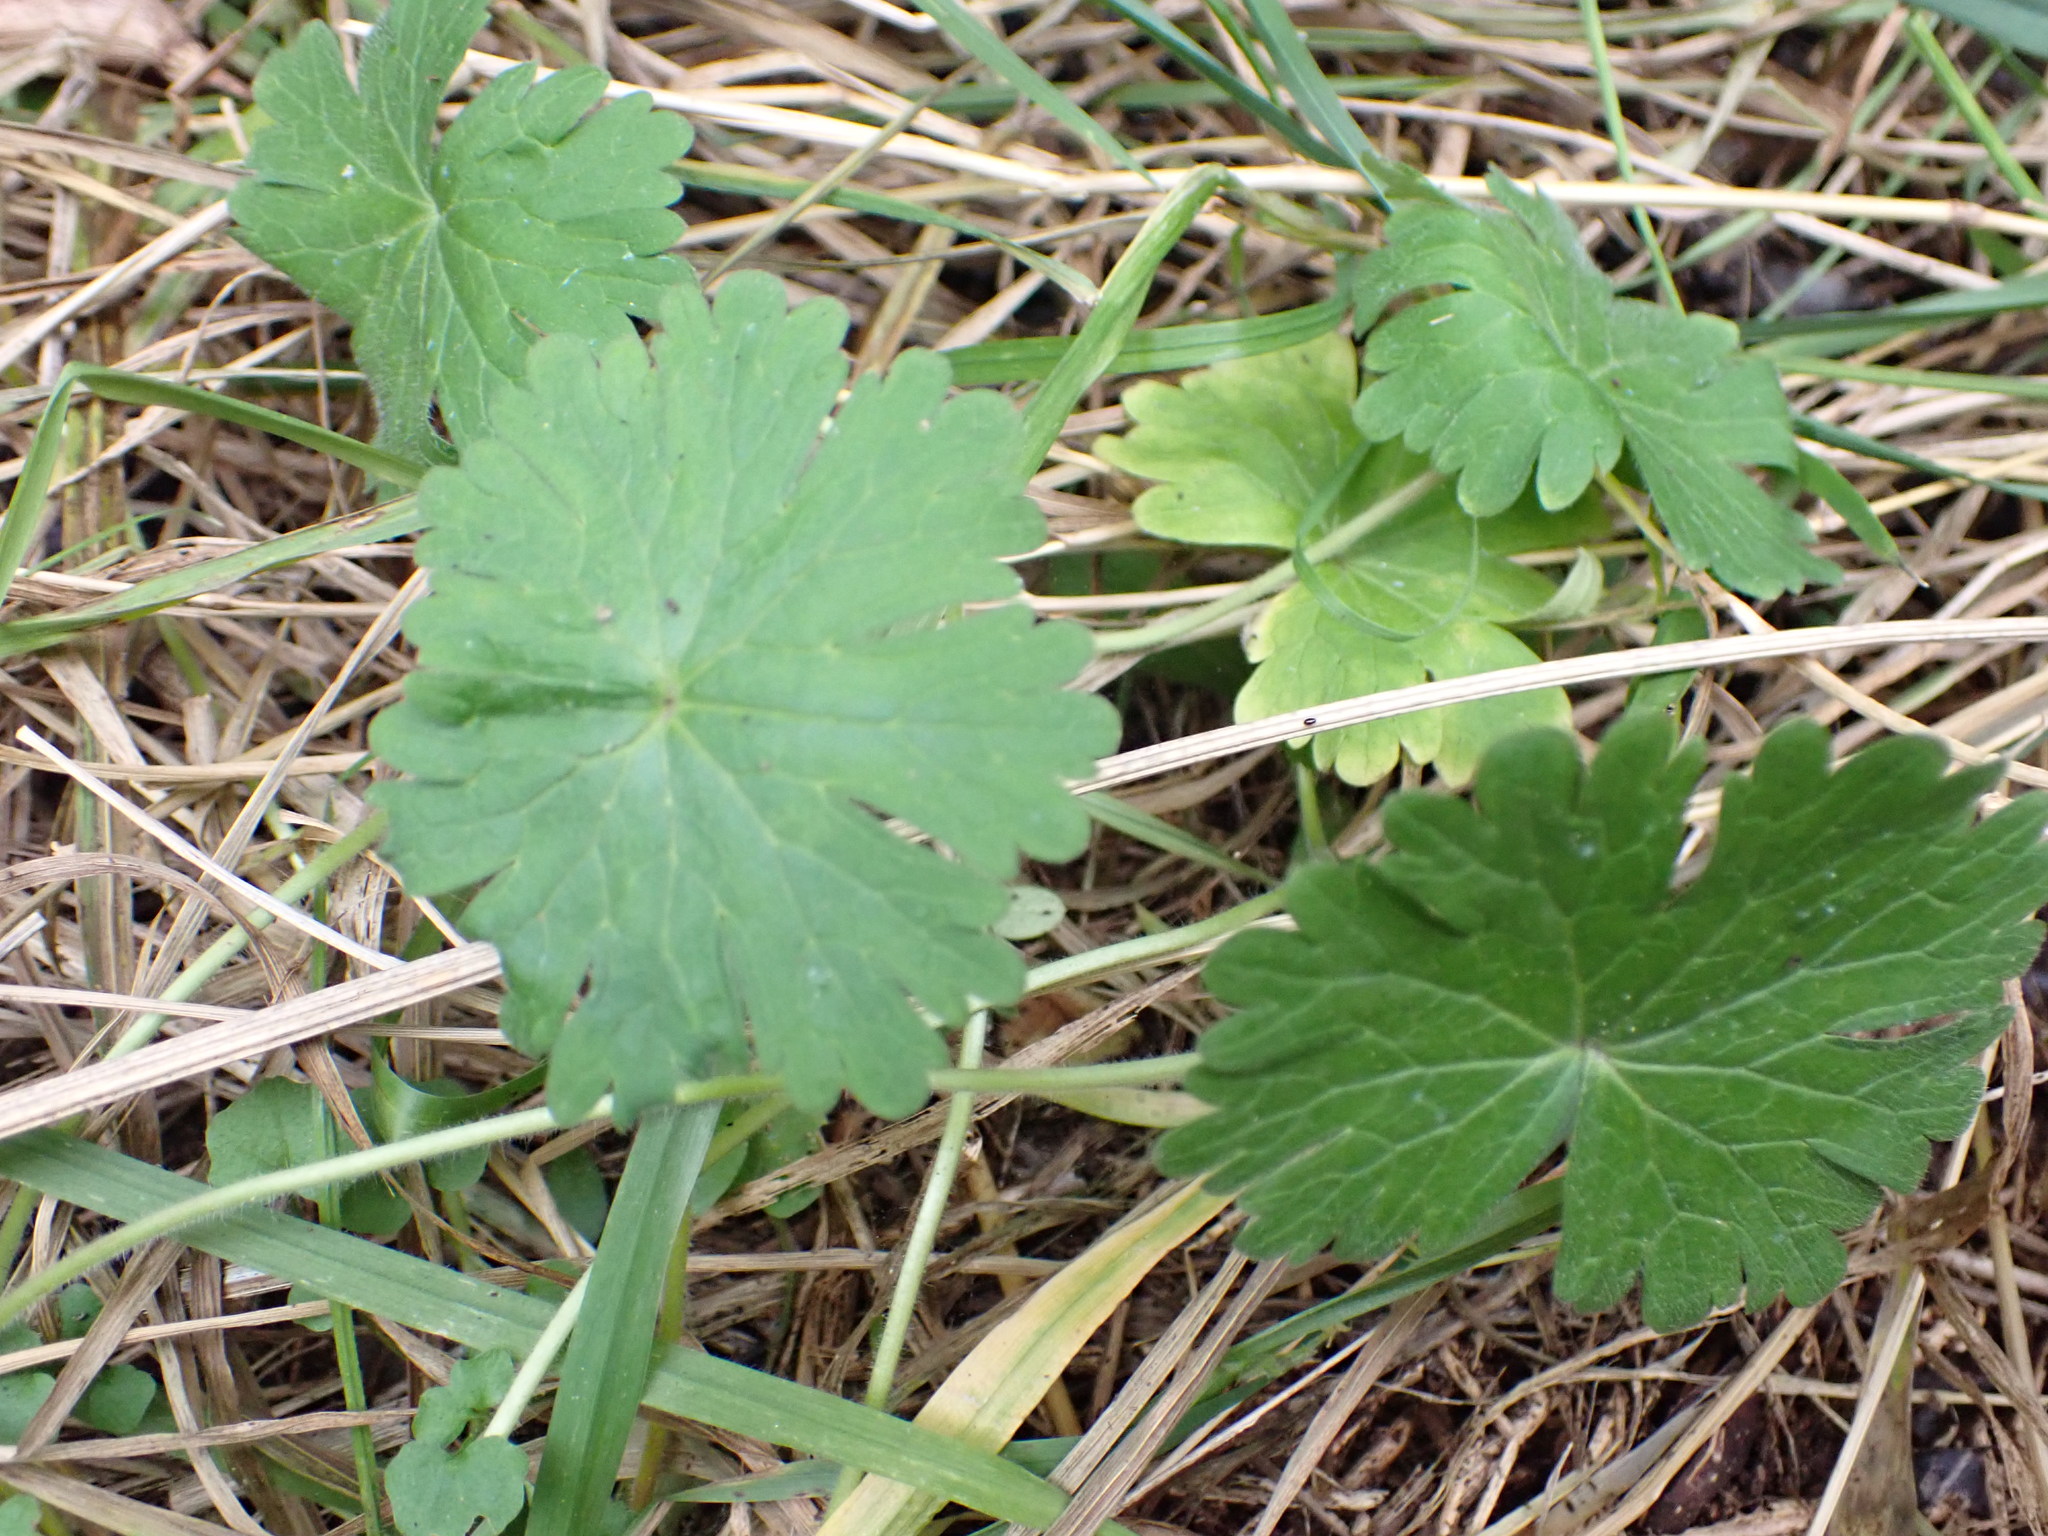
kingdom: Plantae
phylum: Tracheophyta
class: Magnoliopsida
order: Geraniales
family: Geraniaceae
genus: Geranium
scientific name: Geranium molle
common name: Dove's-foot crane's-bill
